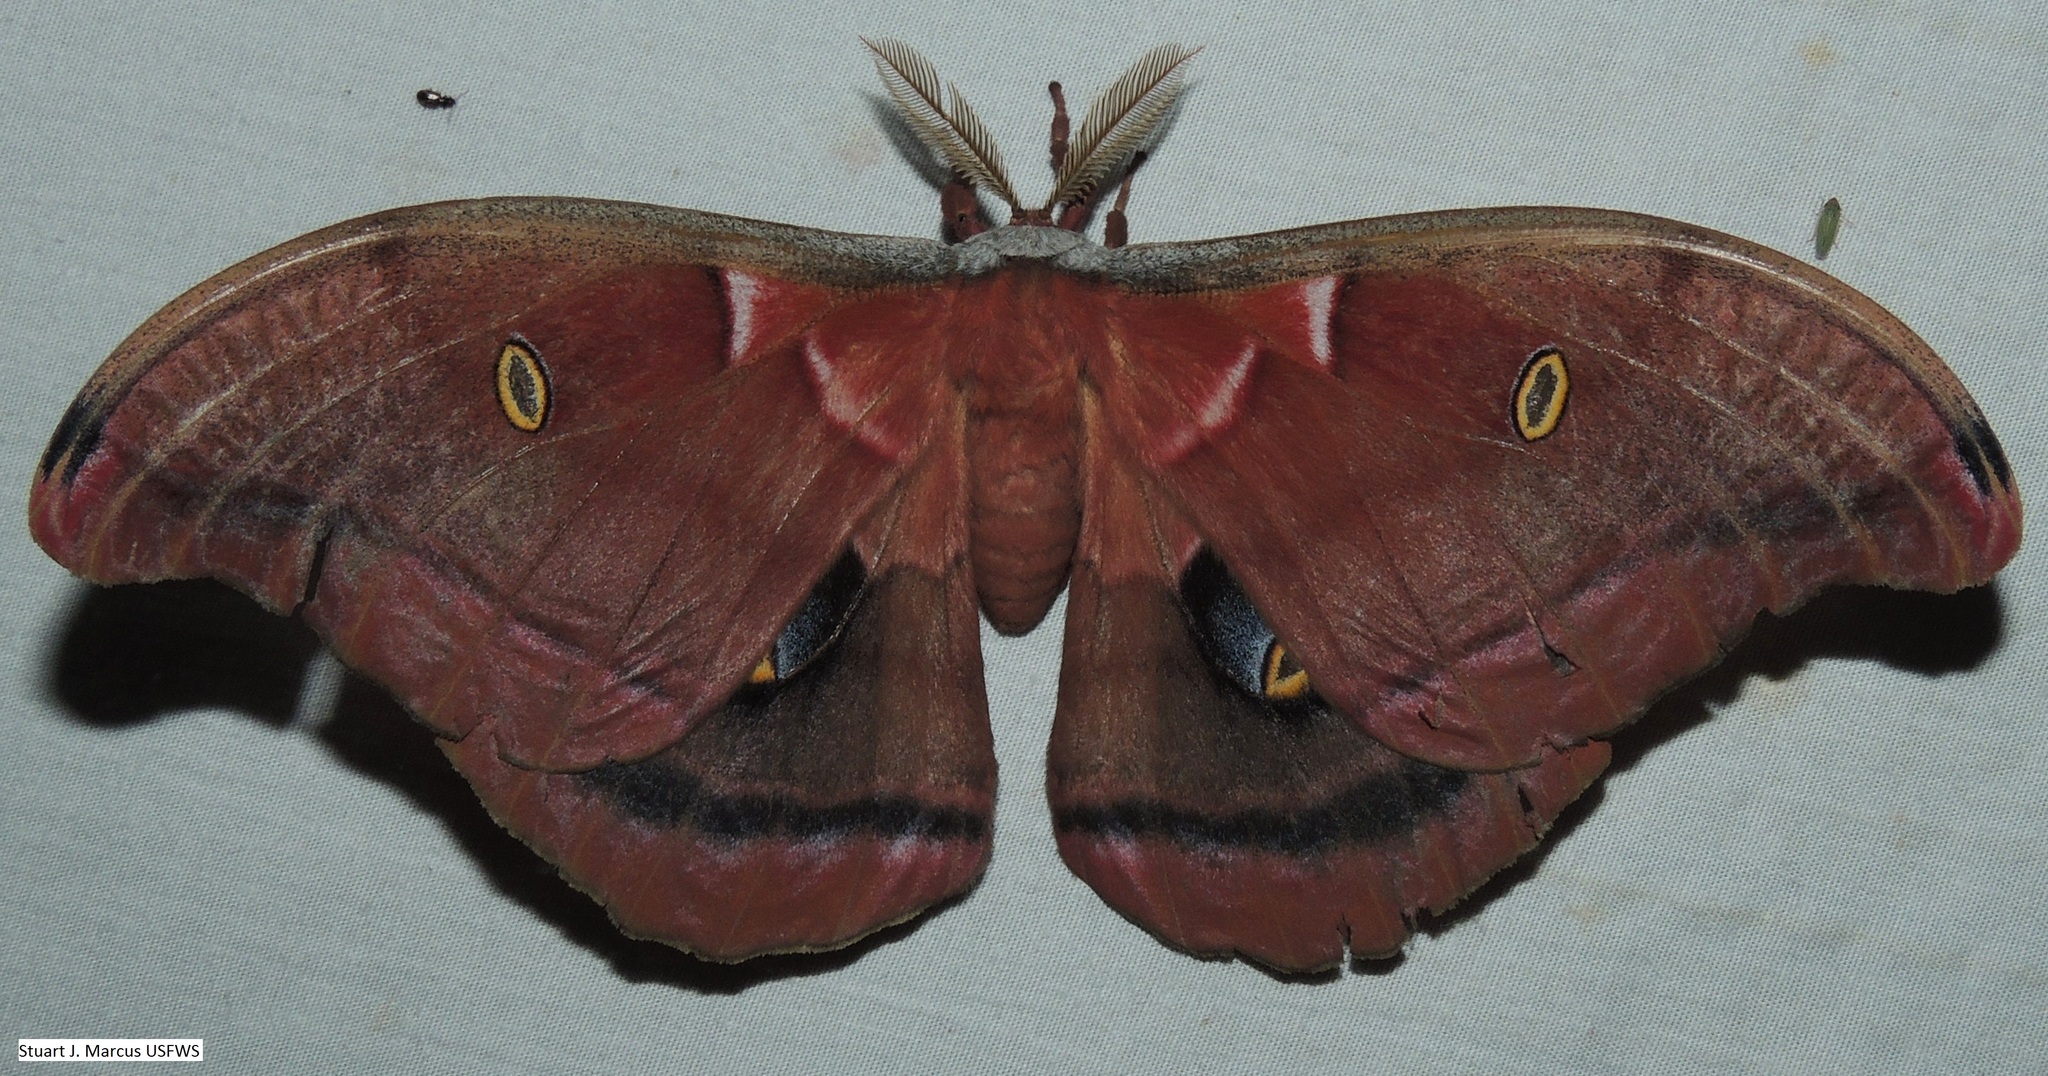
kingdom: Animalia
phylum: Arthropoda
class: Insecta
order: Lepidoptera
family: Saturniidae
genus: Antheraea
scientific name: Antheraea polyphemus
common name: Polyphemus moth
